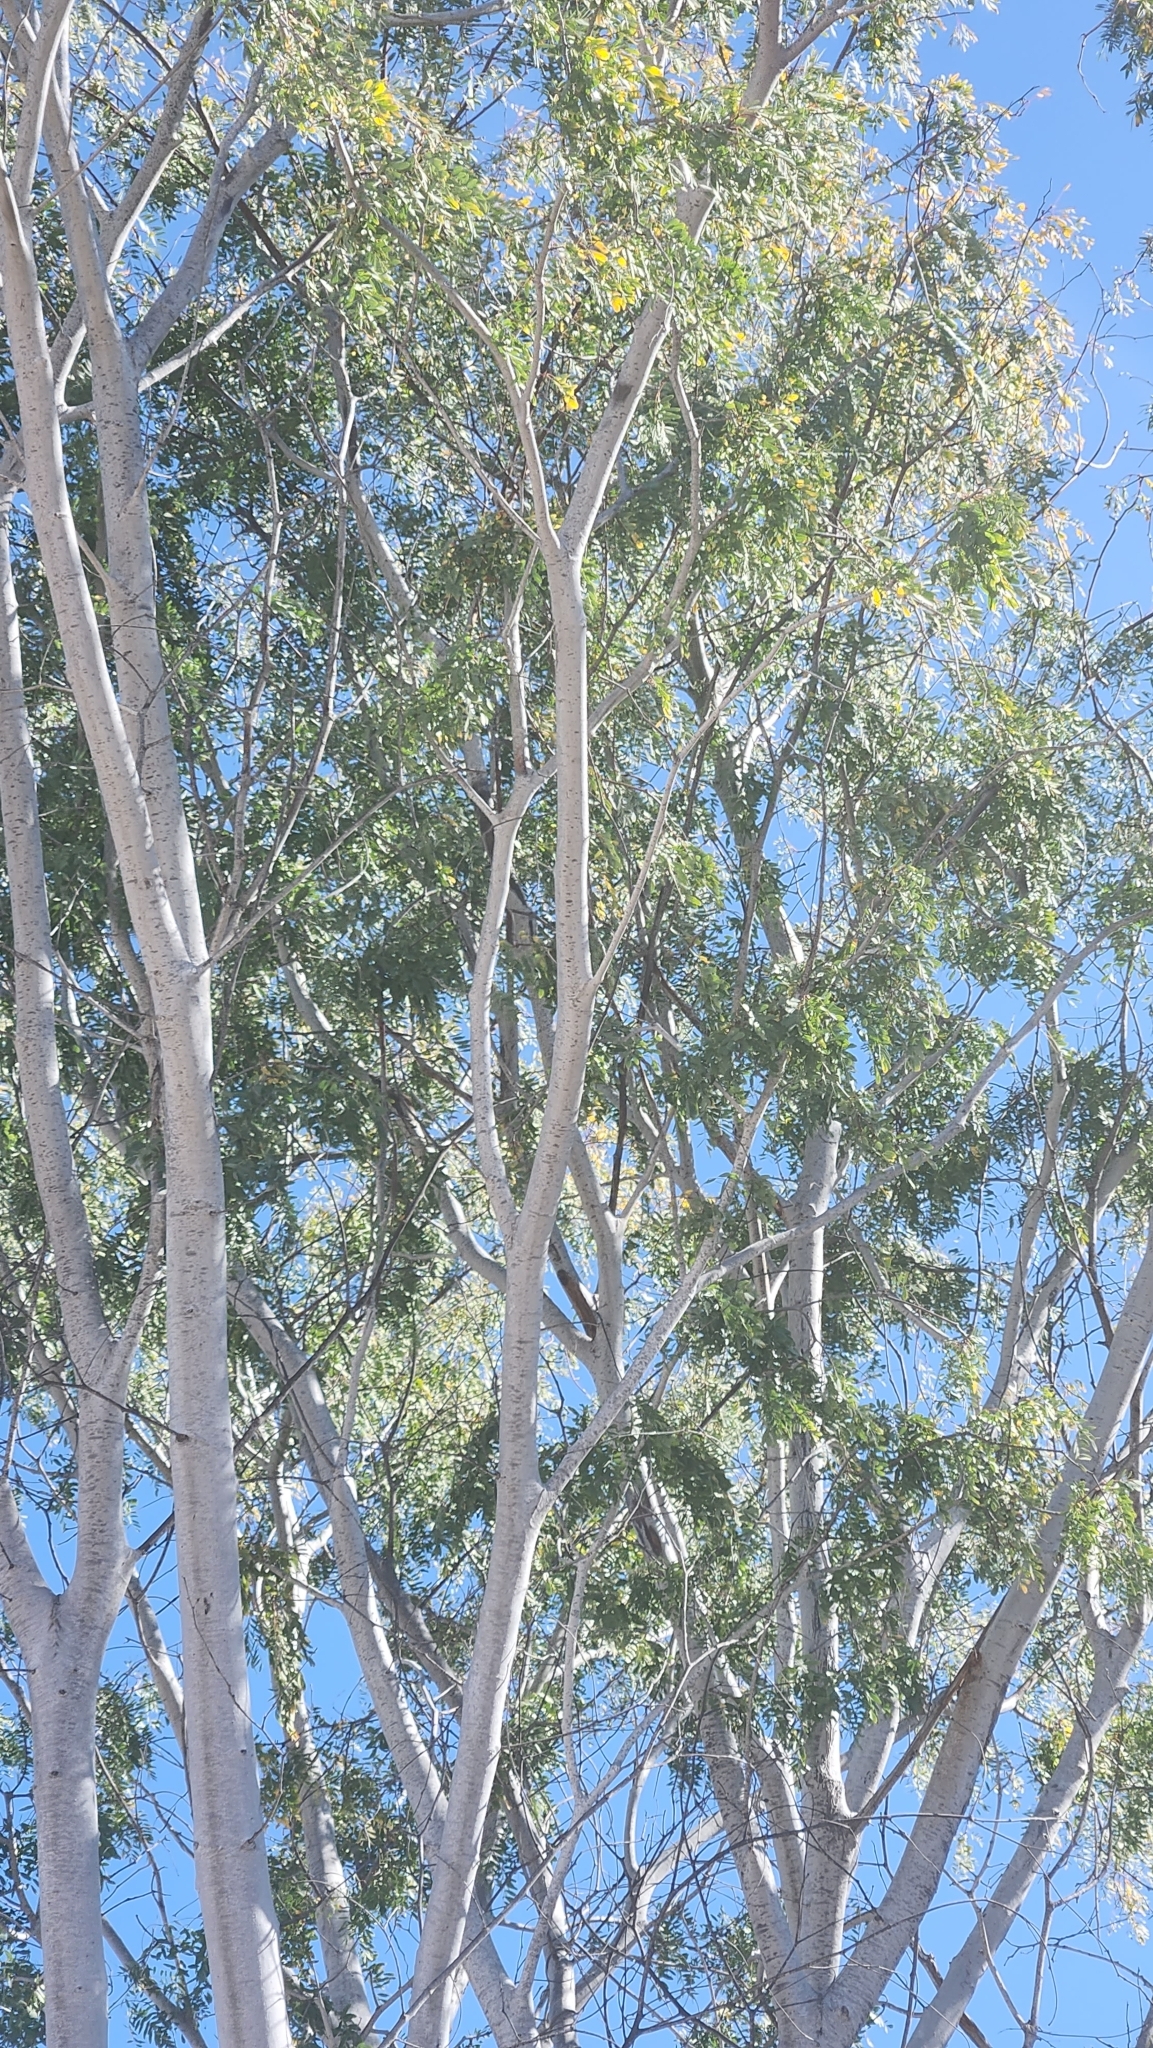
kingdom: Plantae
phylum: Tracheophyta
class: Magnoliopsida
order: Fabales
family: Fabaceae
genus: Lysiloma
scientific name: Lysiloma candidum
